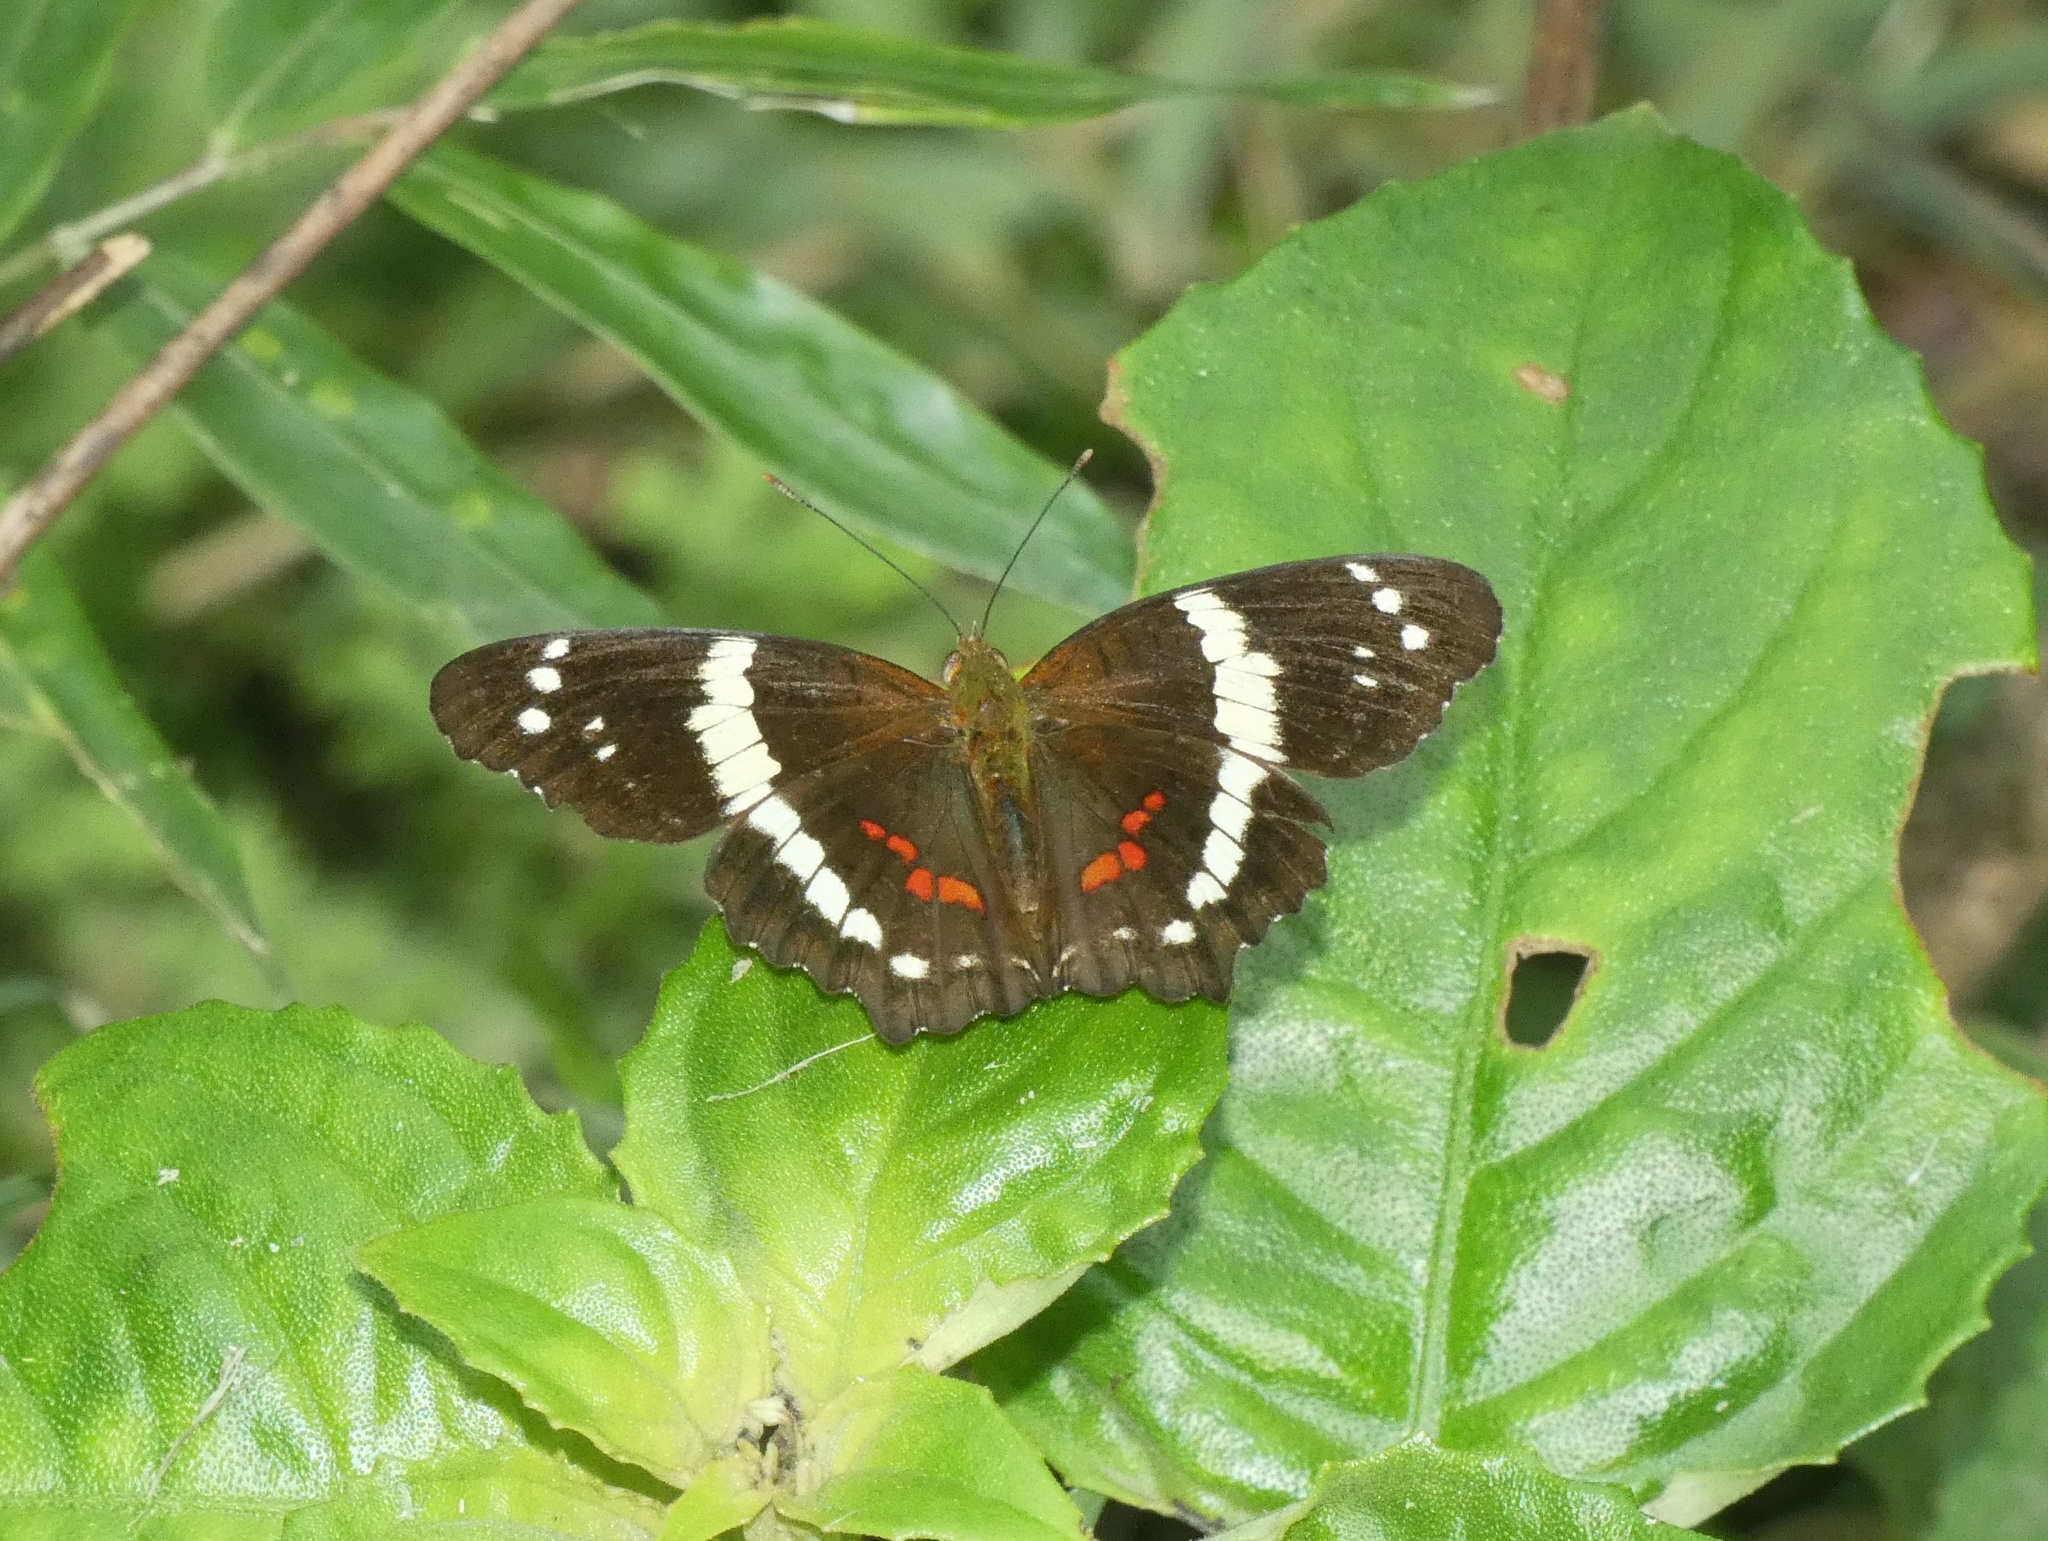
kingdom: Animalia
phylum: Arthropoda
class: Insecta
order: Lepidoptera
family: Nymphalidae
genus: Anartia
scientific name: Anartia fatima
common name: Banded peacock
